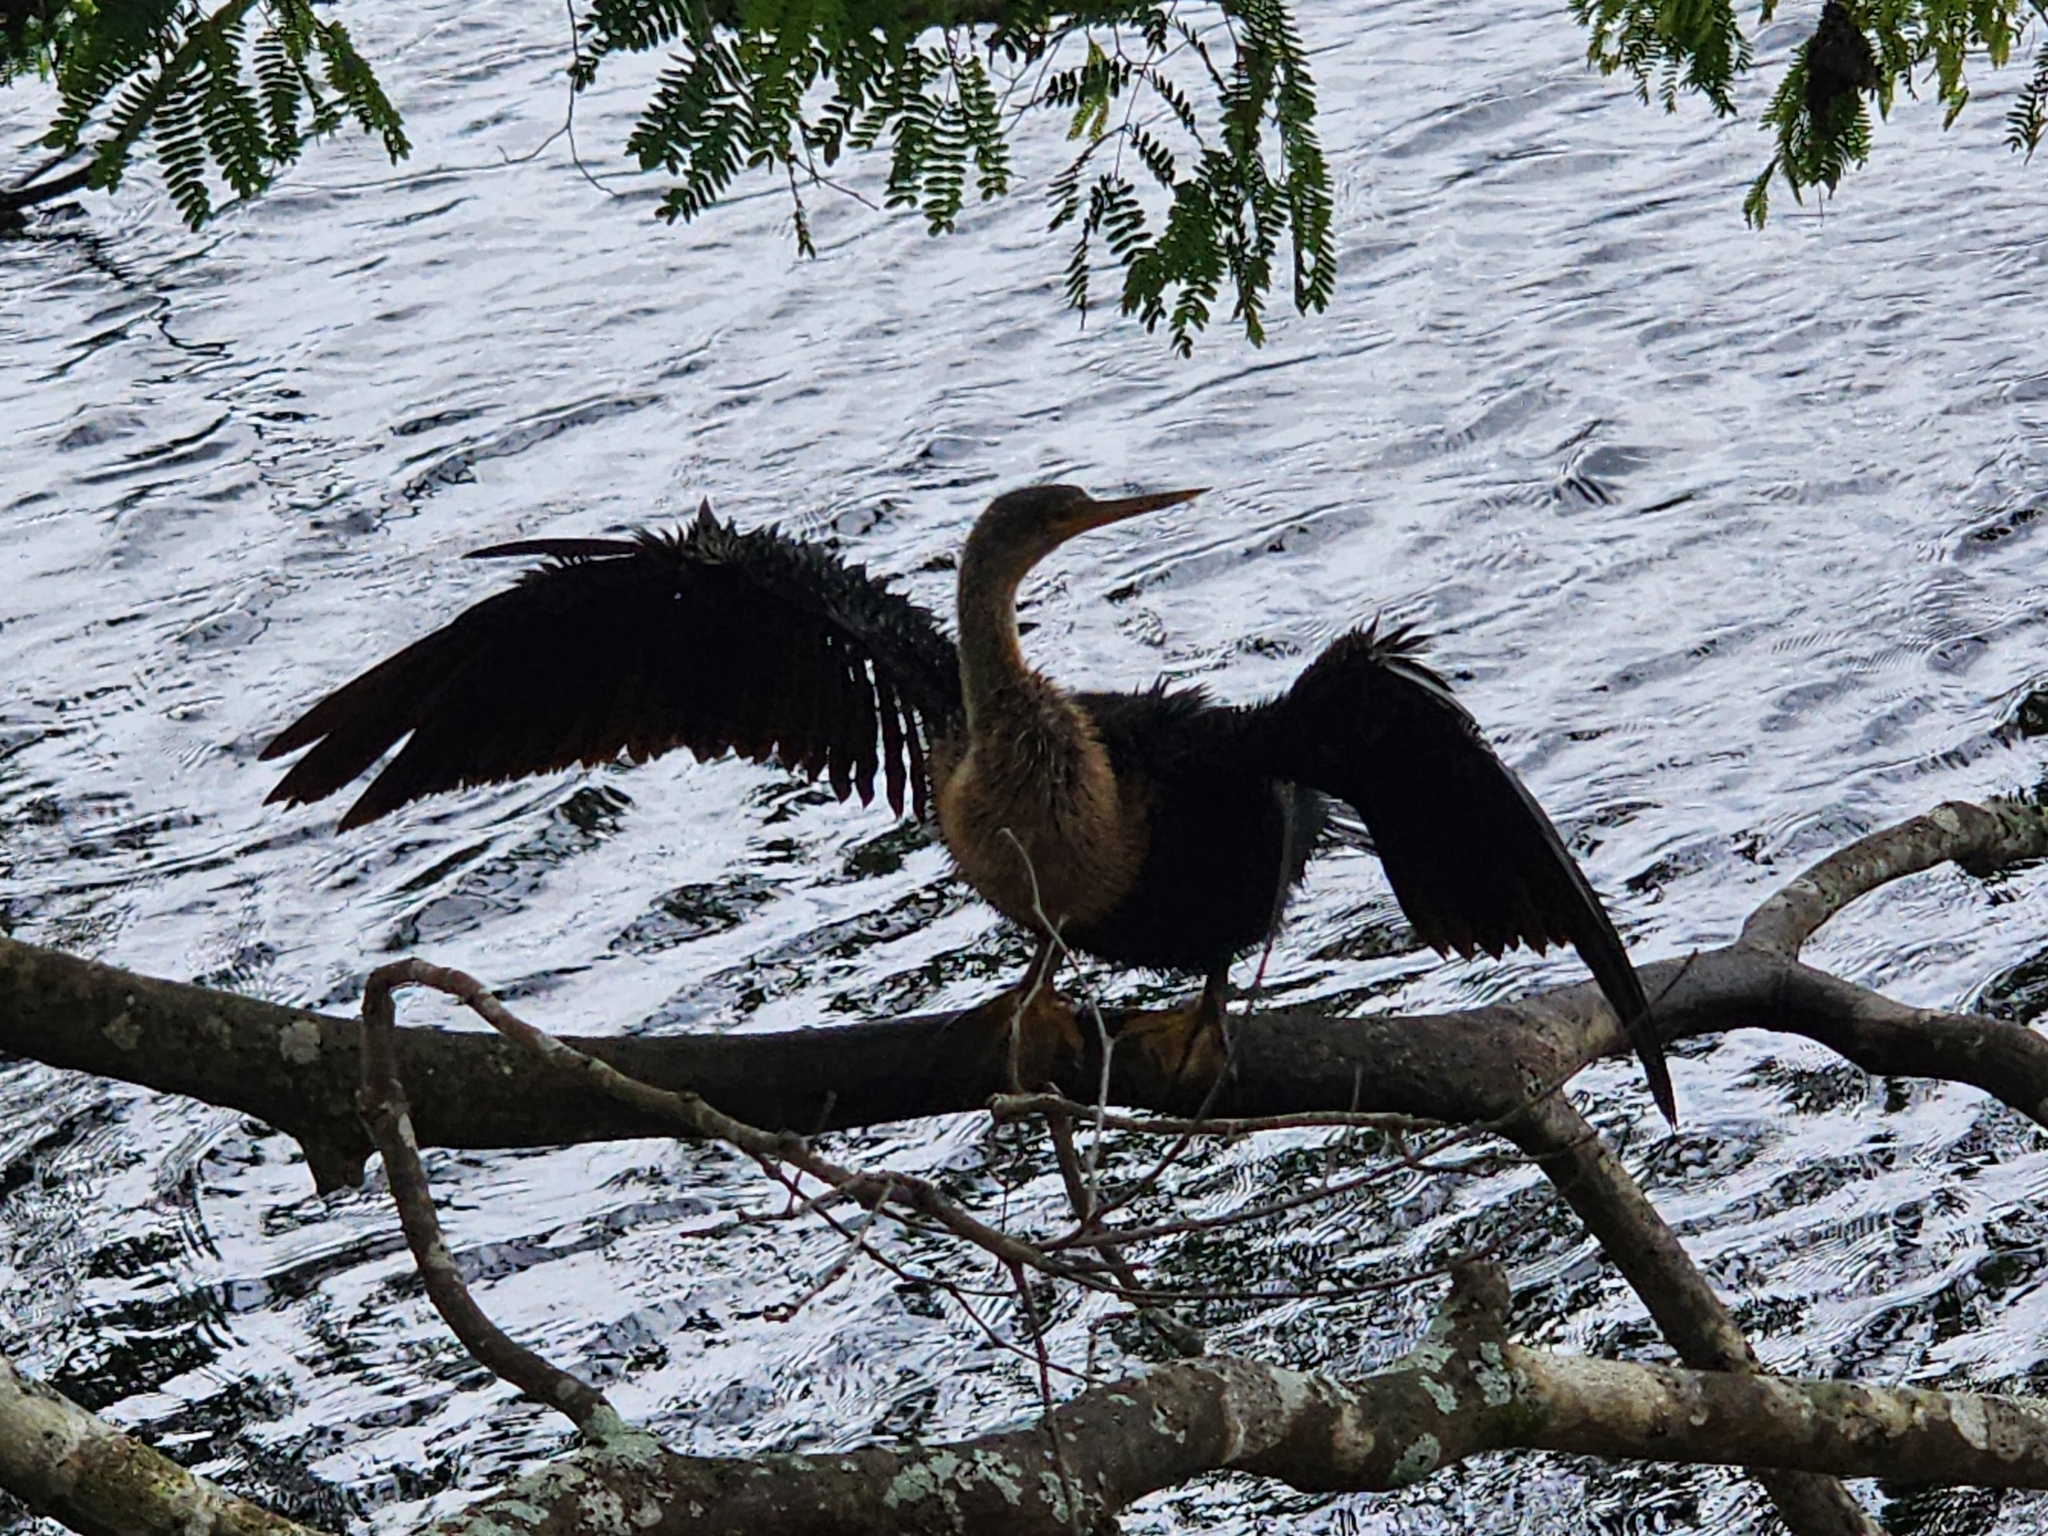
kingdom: Animalia
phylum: Chordata
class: Aves
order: Suliformes
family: Anhingidae
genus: Anhinga
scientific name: Anhinga anhinga
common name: Anhinga
